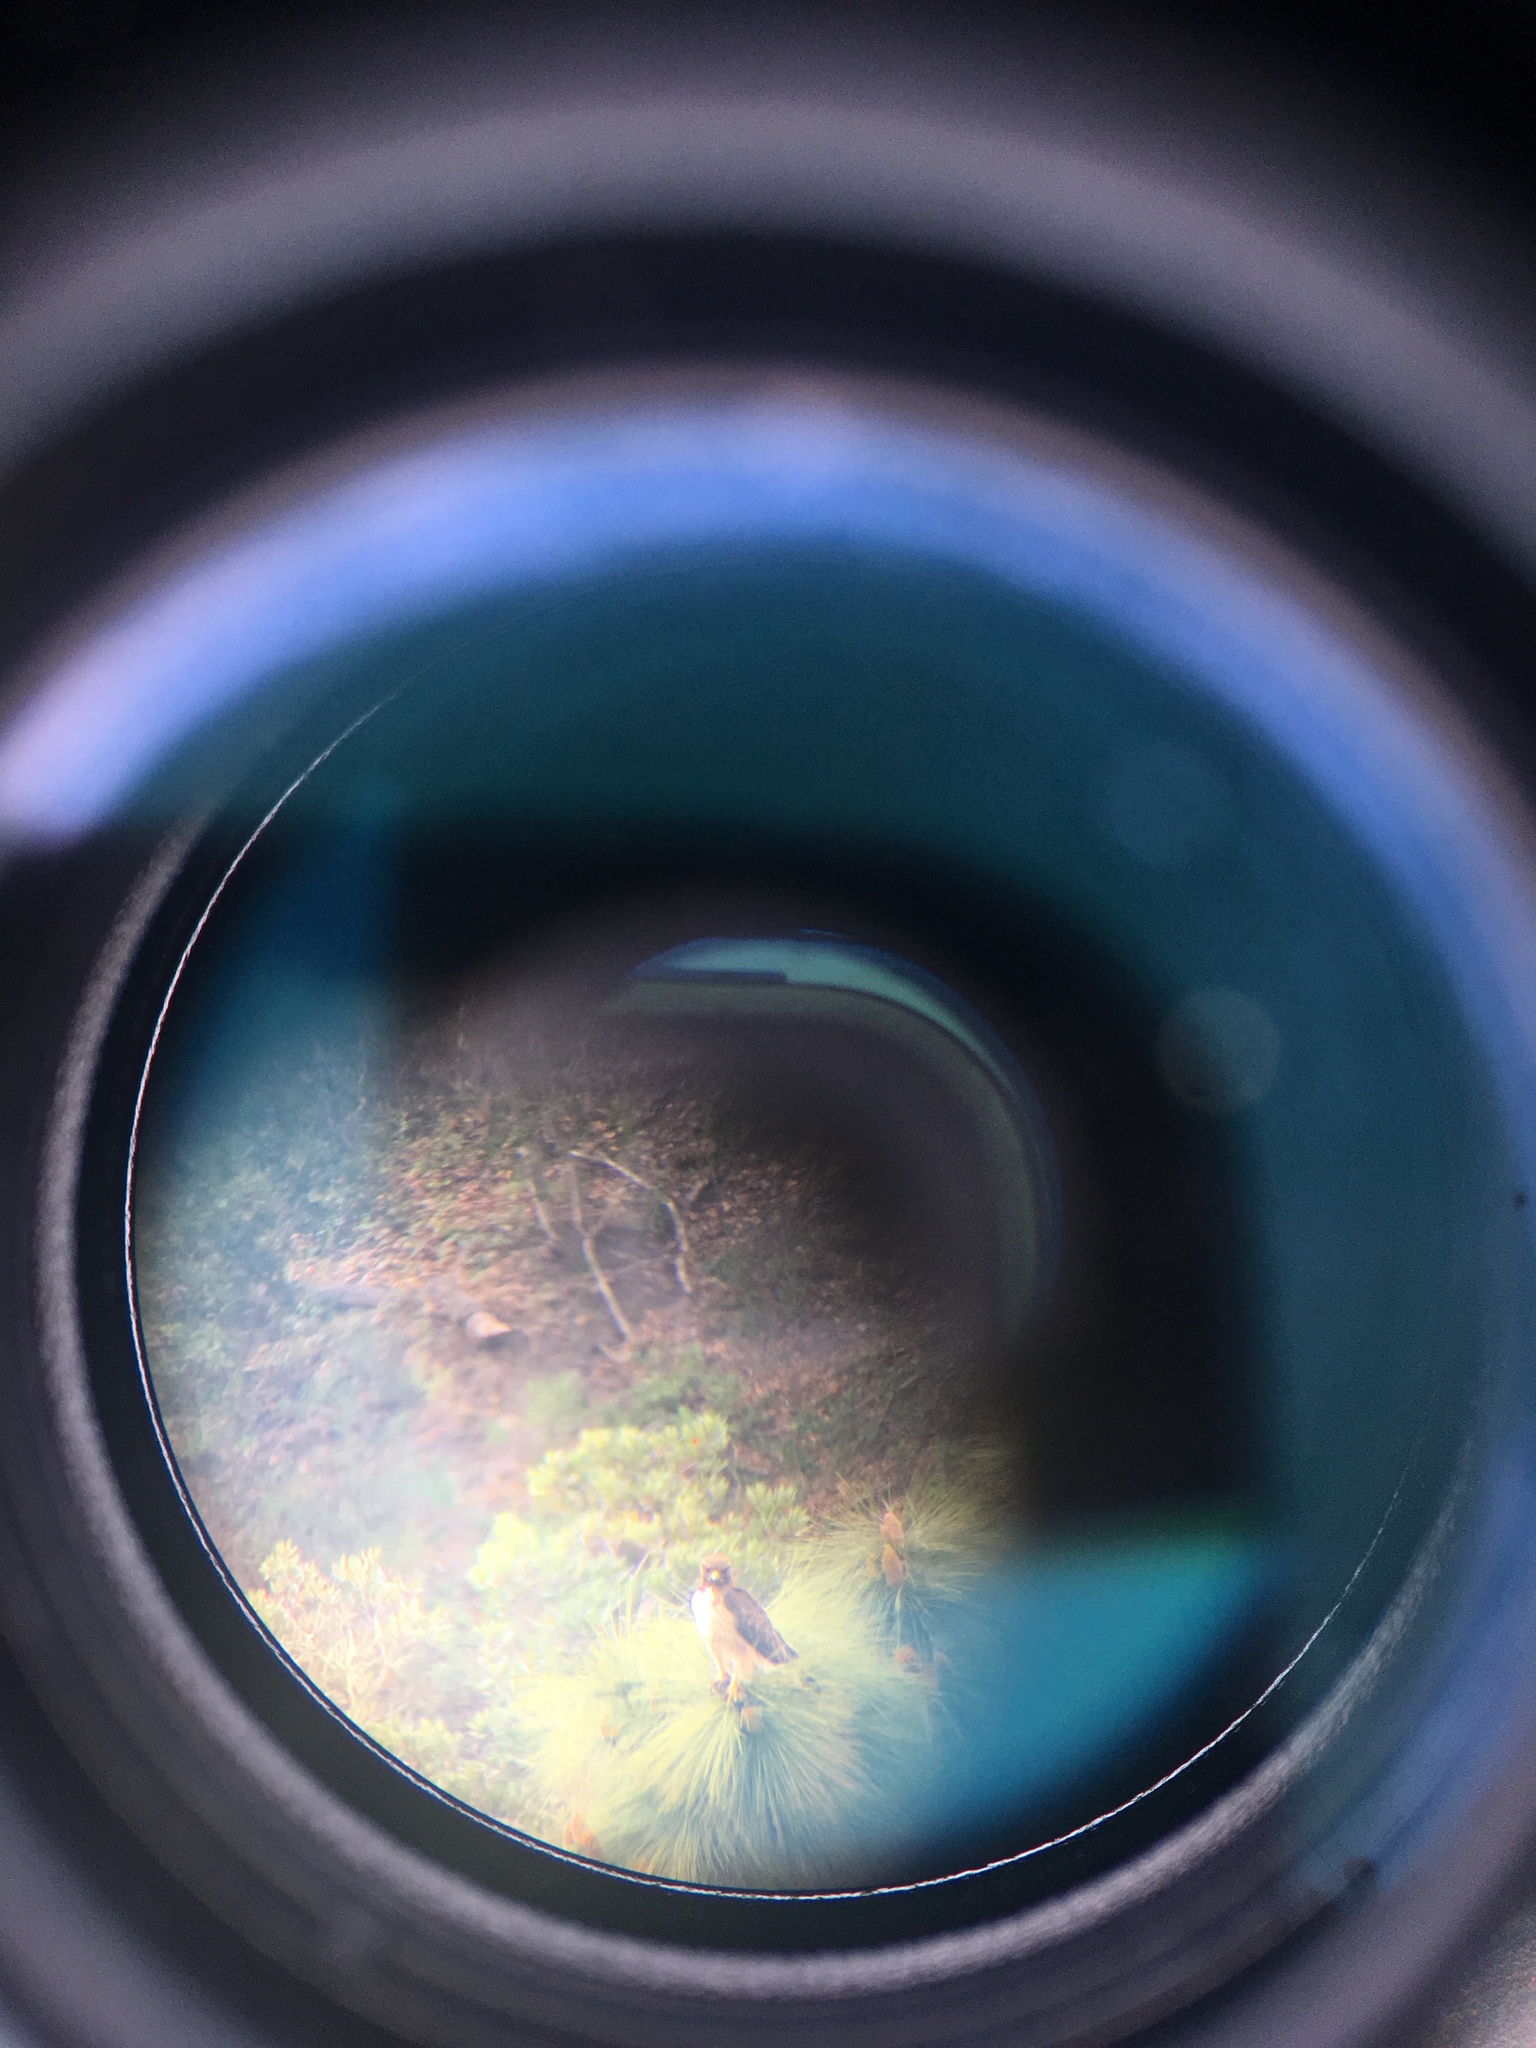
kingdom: Animalia
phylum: Chordata
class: Aves
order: Accipitriformes
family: Accipitridae
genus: Buteo
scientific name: Buteo jamaicensis
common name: Red-tailed hawk
